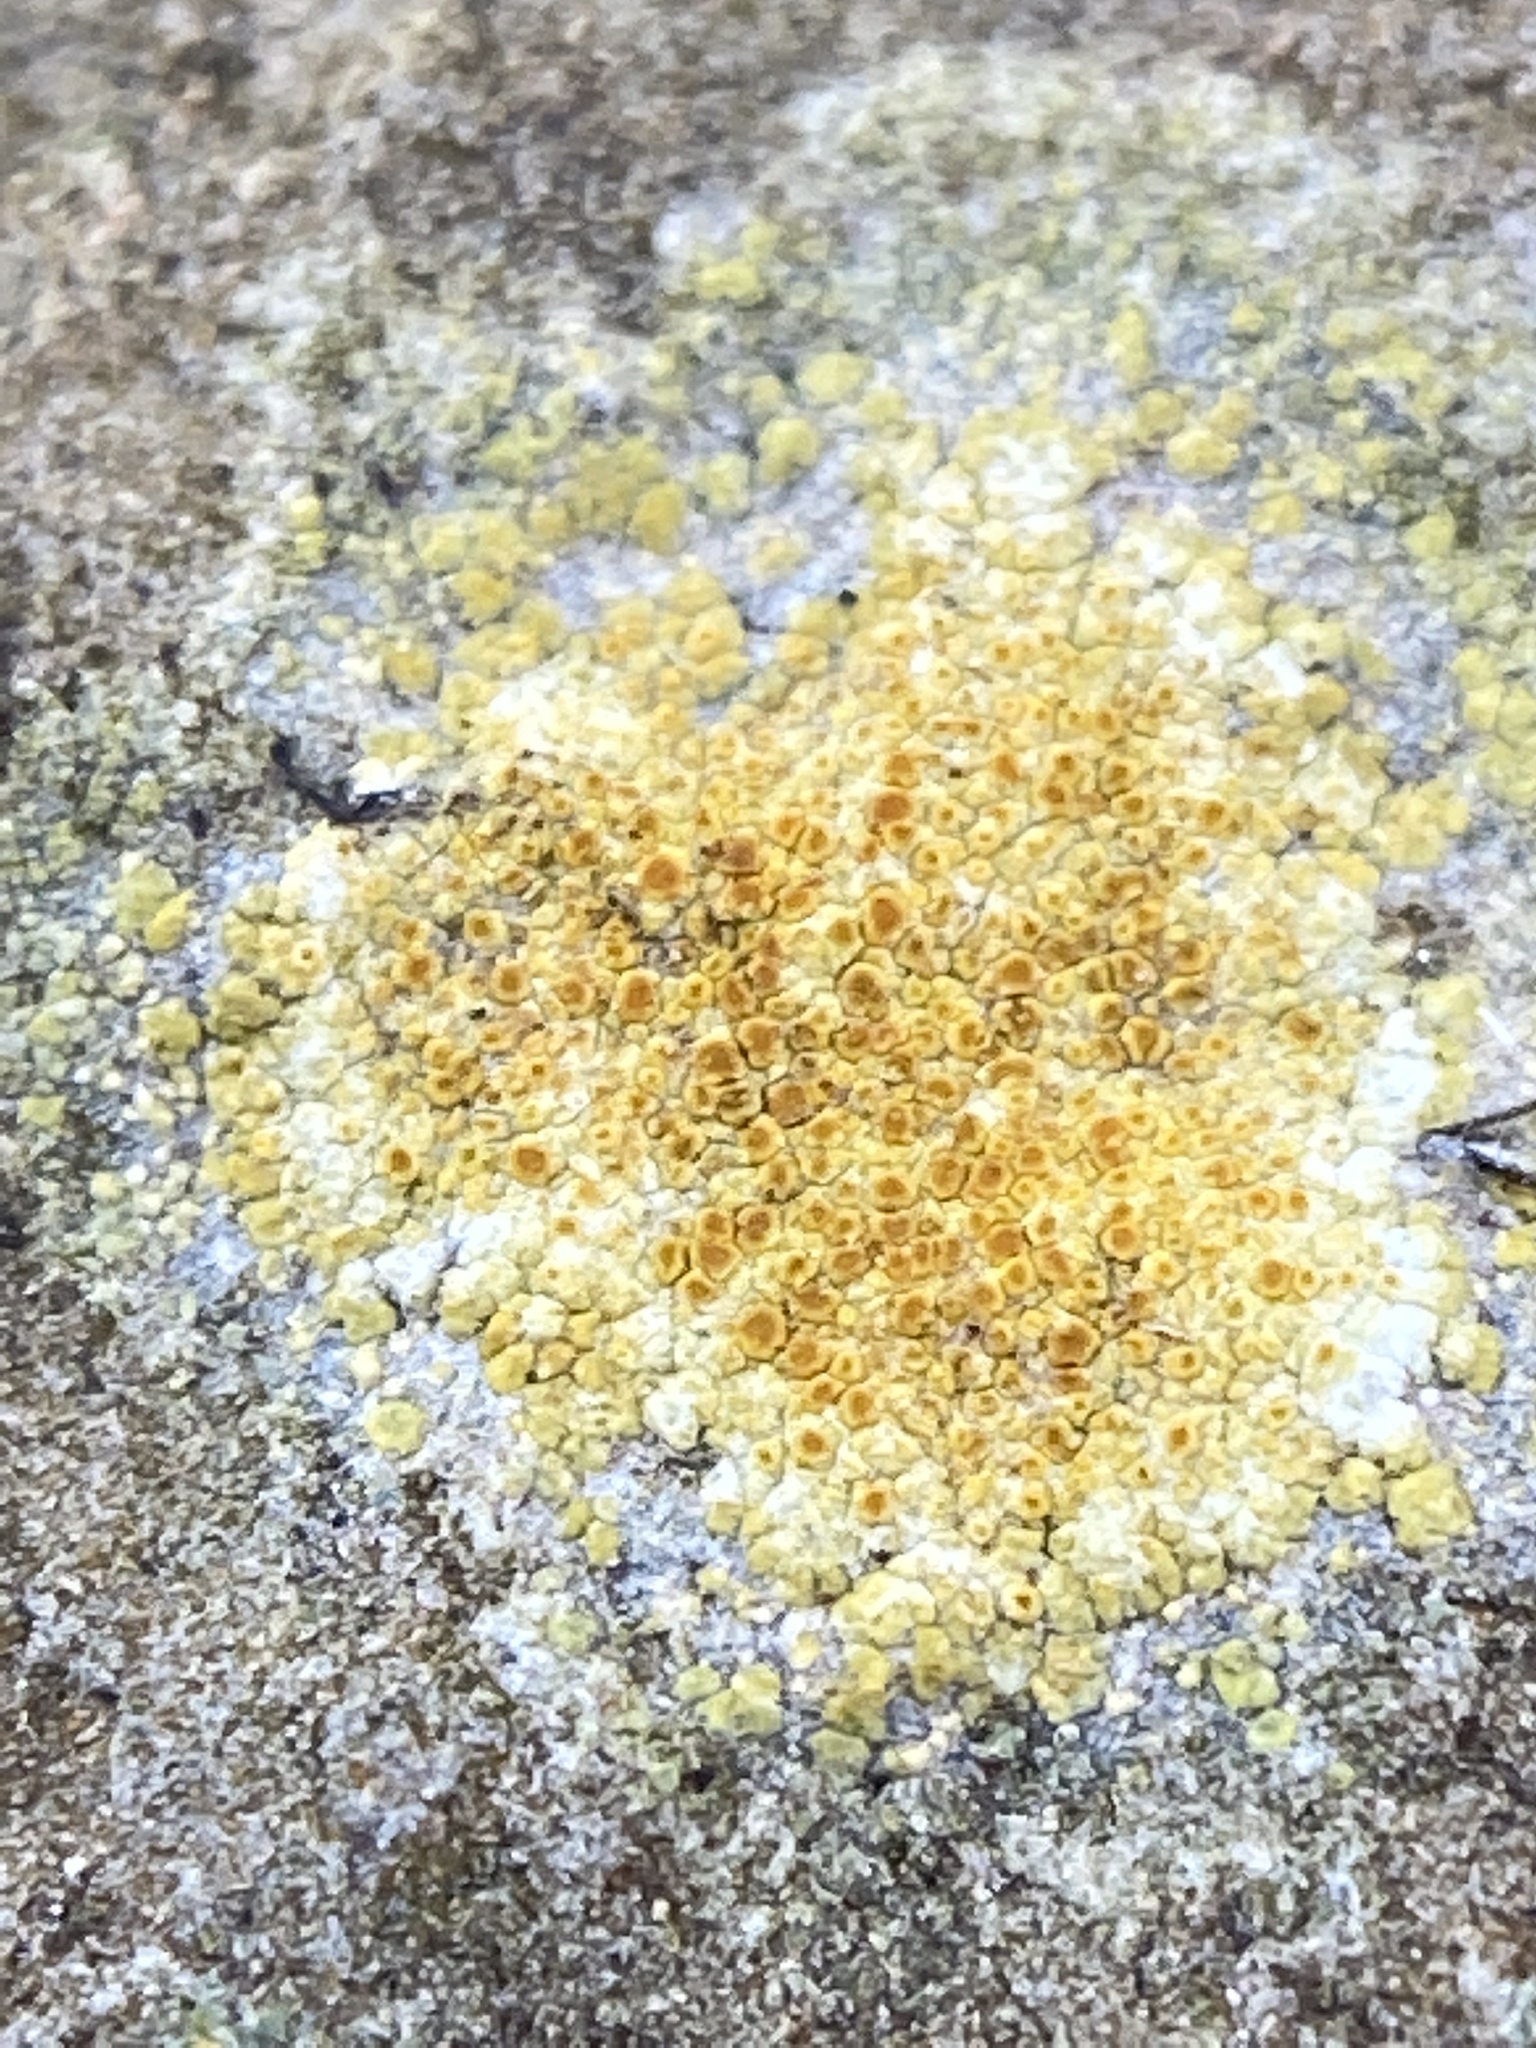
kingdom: Fungi
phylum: Ascomycota
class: Lecanoromycetes
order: Teloschistales
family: Teloschistaceae
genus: Gyalolechia
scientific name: Gyalolechia flavovirescens
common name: Sulphur firedot
